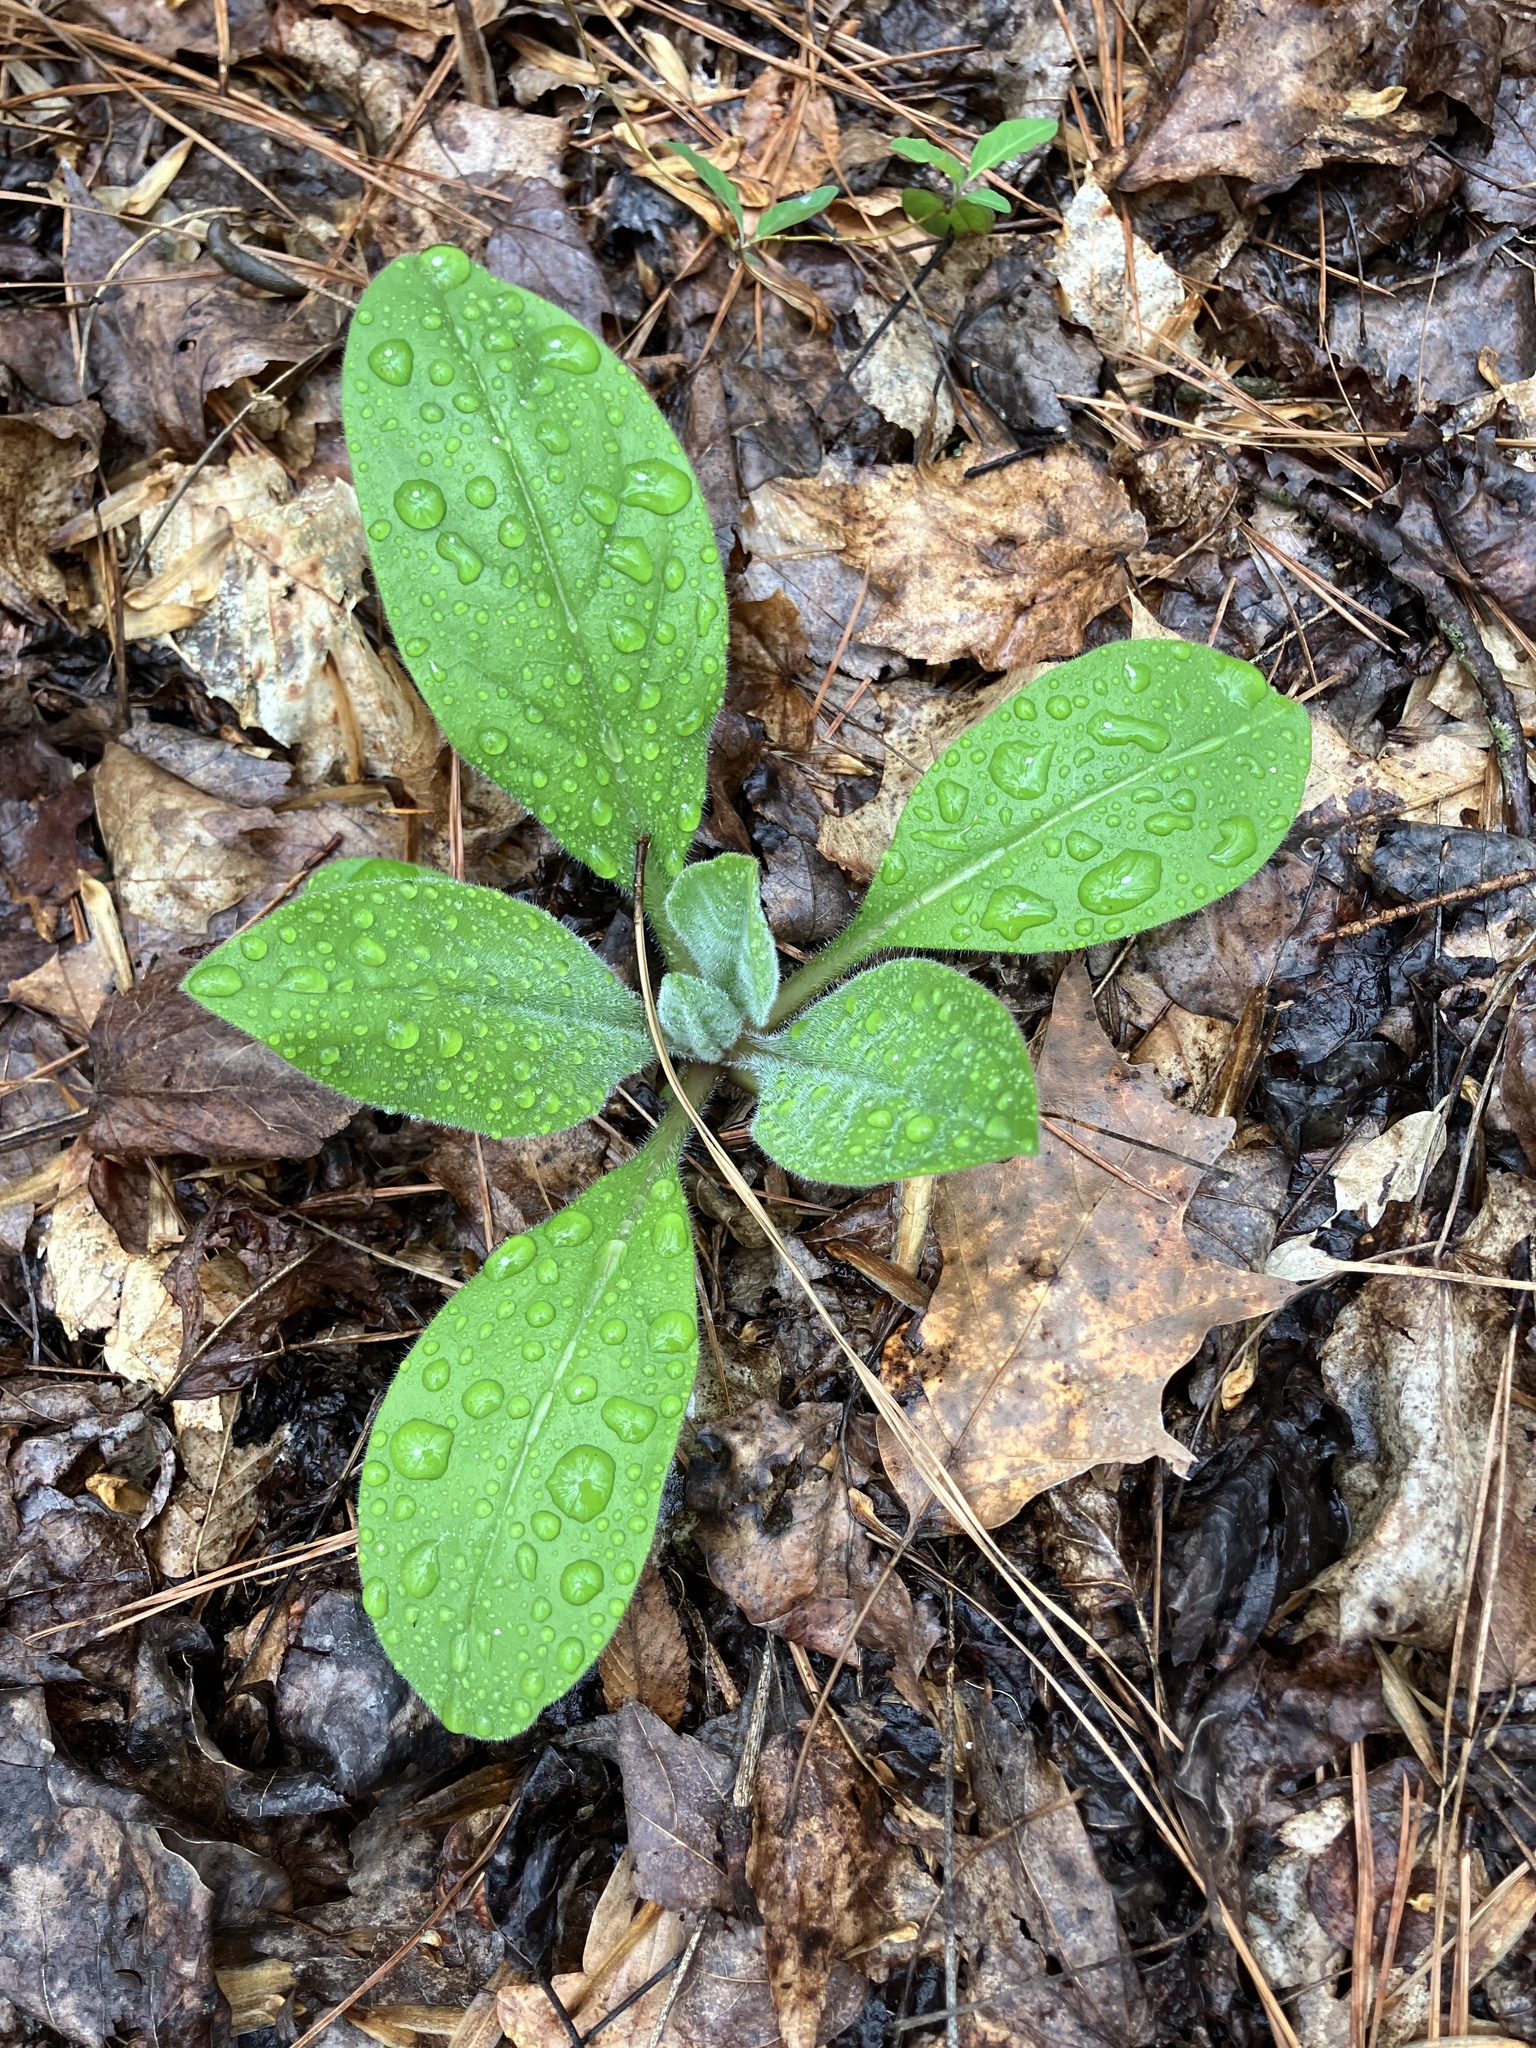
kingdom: Plantae
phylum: Tracheophyta
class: Magnoliopsida
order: Boraginales
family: Boraginaceae
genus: Andersonglossum
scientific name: Andersonglossum virginianum
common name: Wild comfrey
